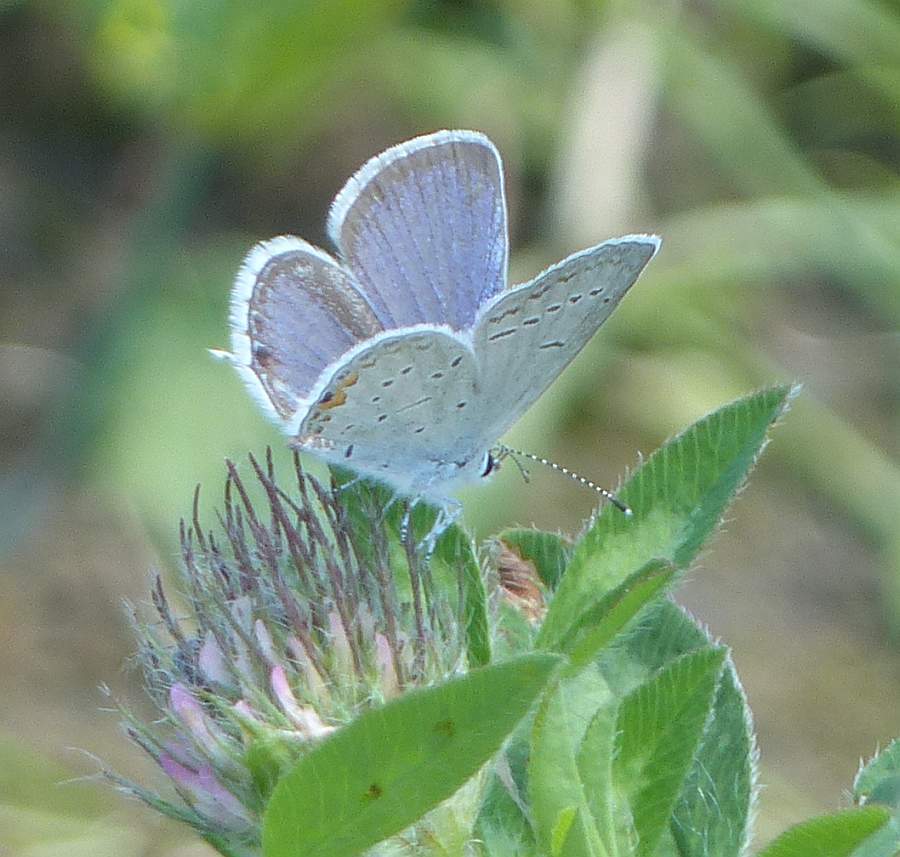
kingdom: Animalia
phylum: Arthropoda
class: Insecta
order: Lepidoptera
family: Lycaenidae
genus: Elkalyce
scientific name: Elkalyce comyntas
